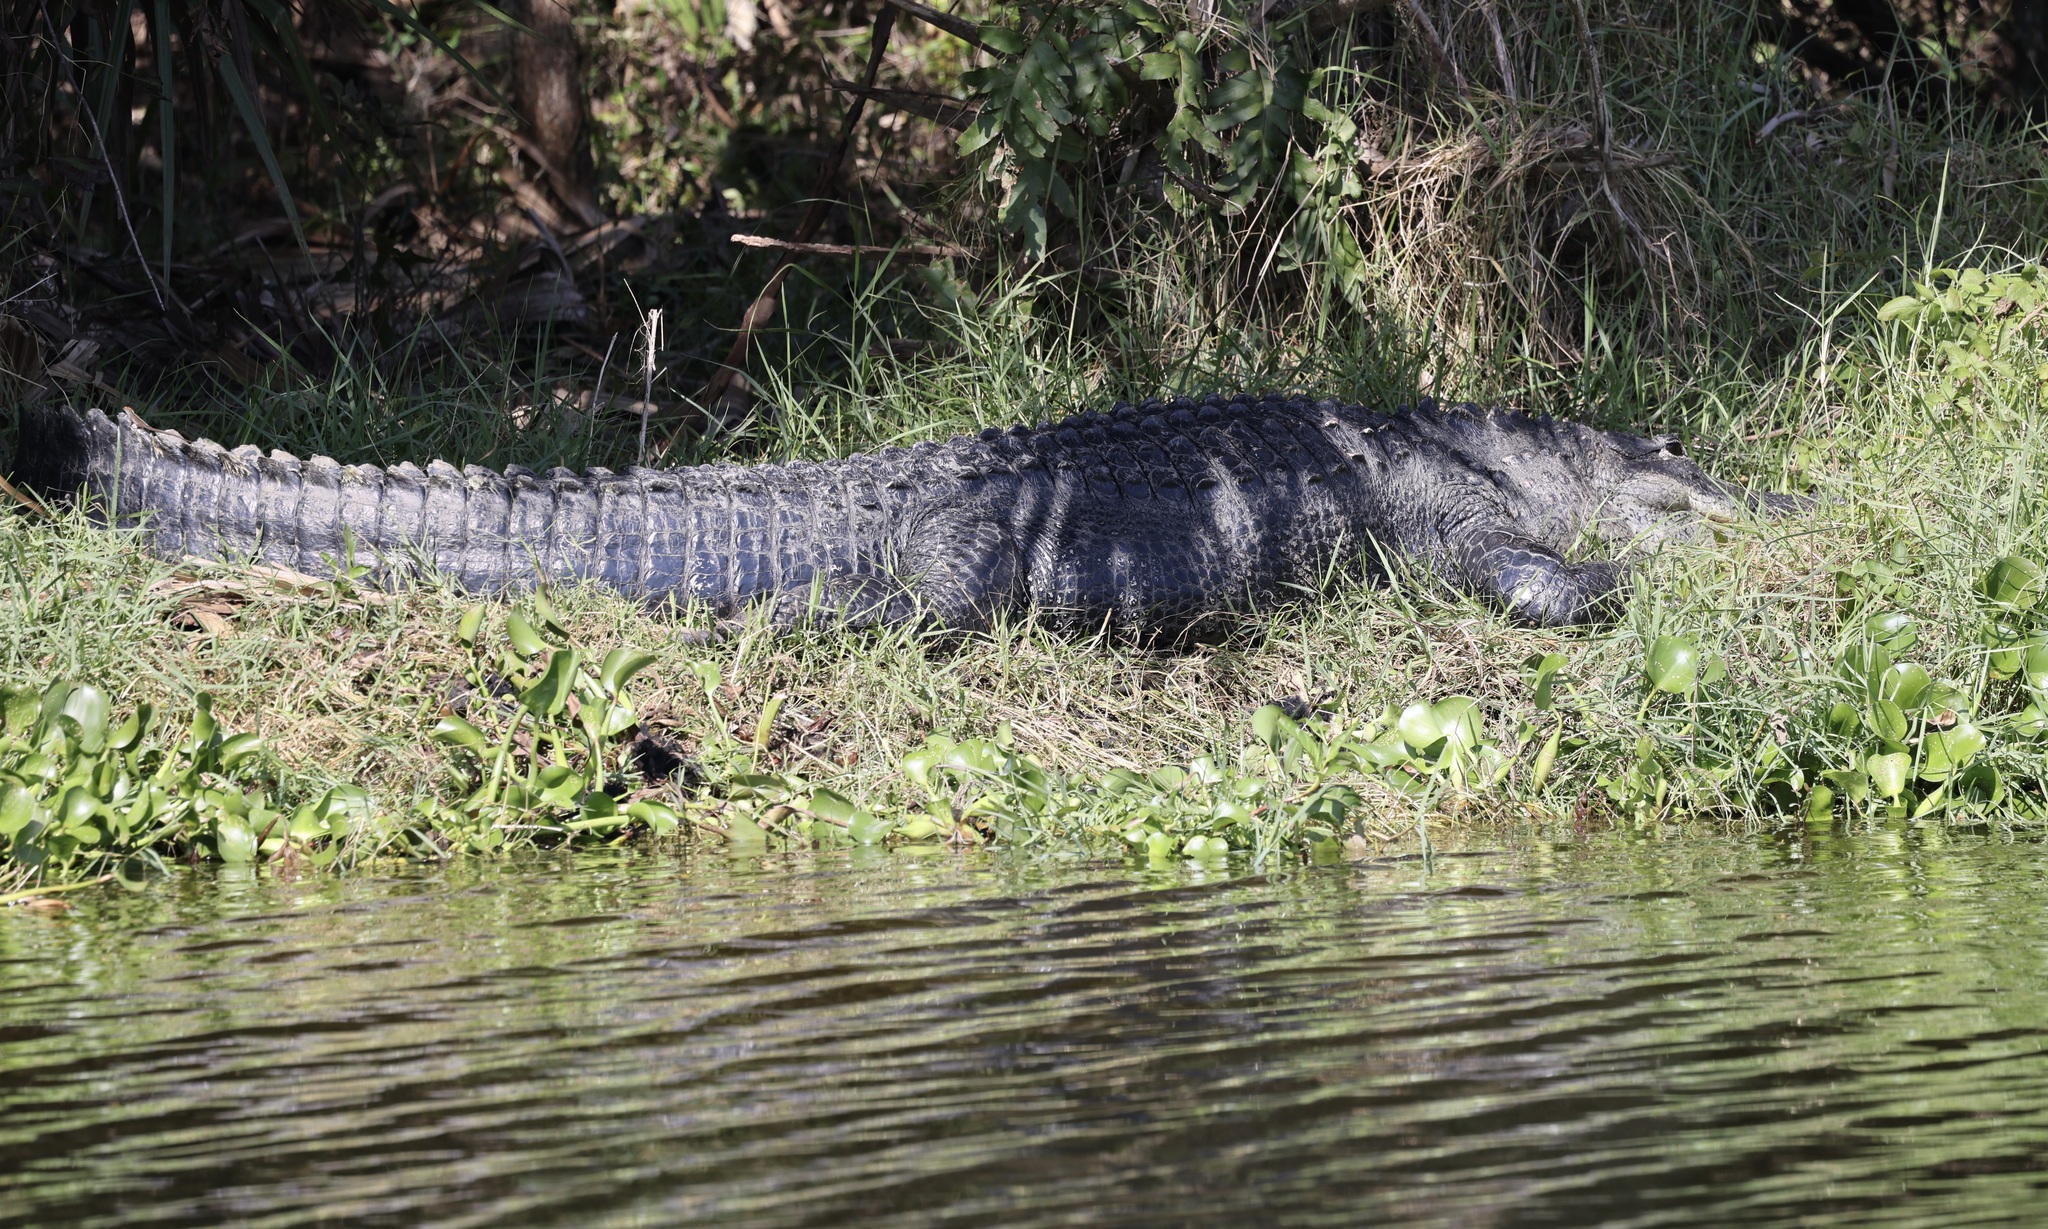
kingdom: Animalia
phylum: Chordata
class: Crocodylia
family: Alligatoridae
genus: Alligator
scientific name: Alligator mississippiensis
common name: American alligator
